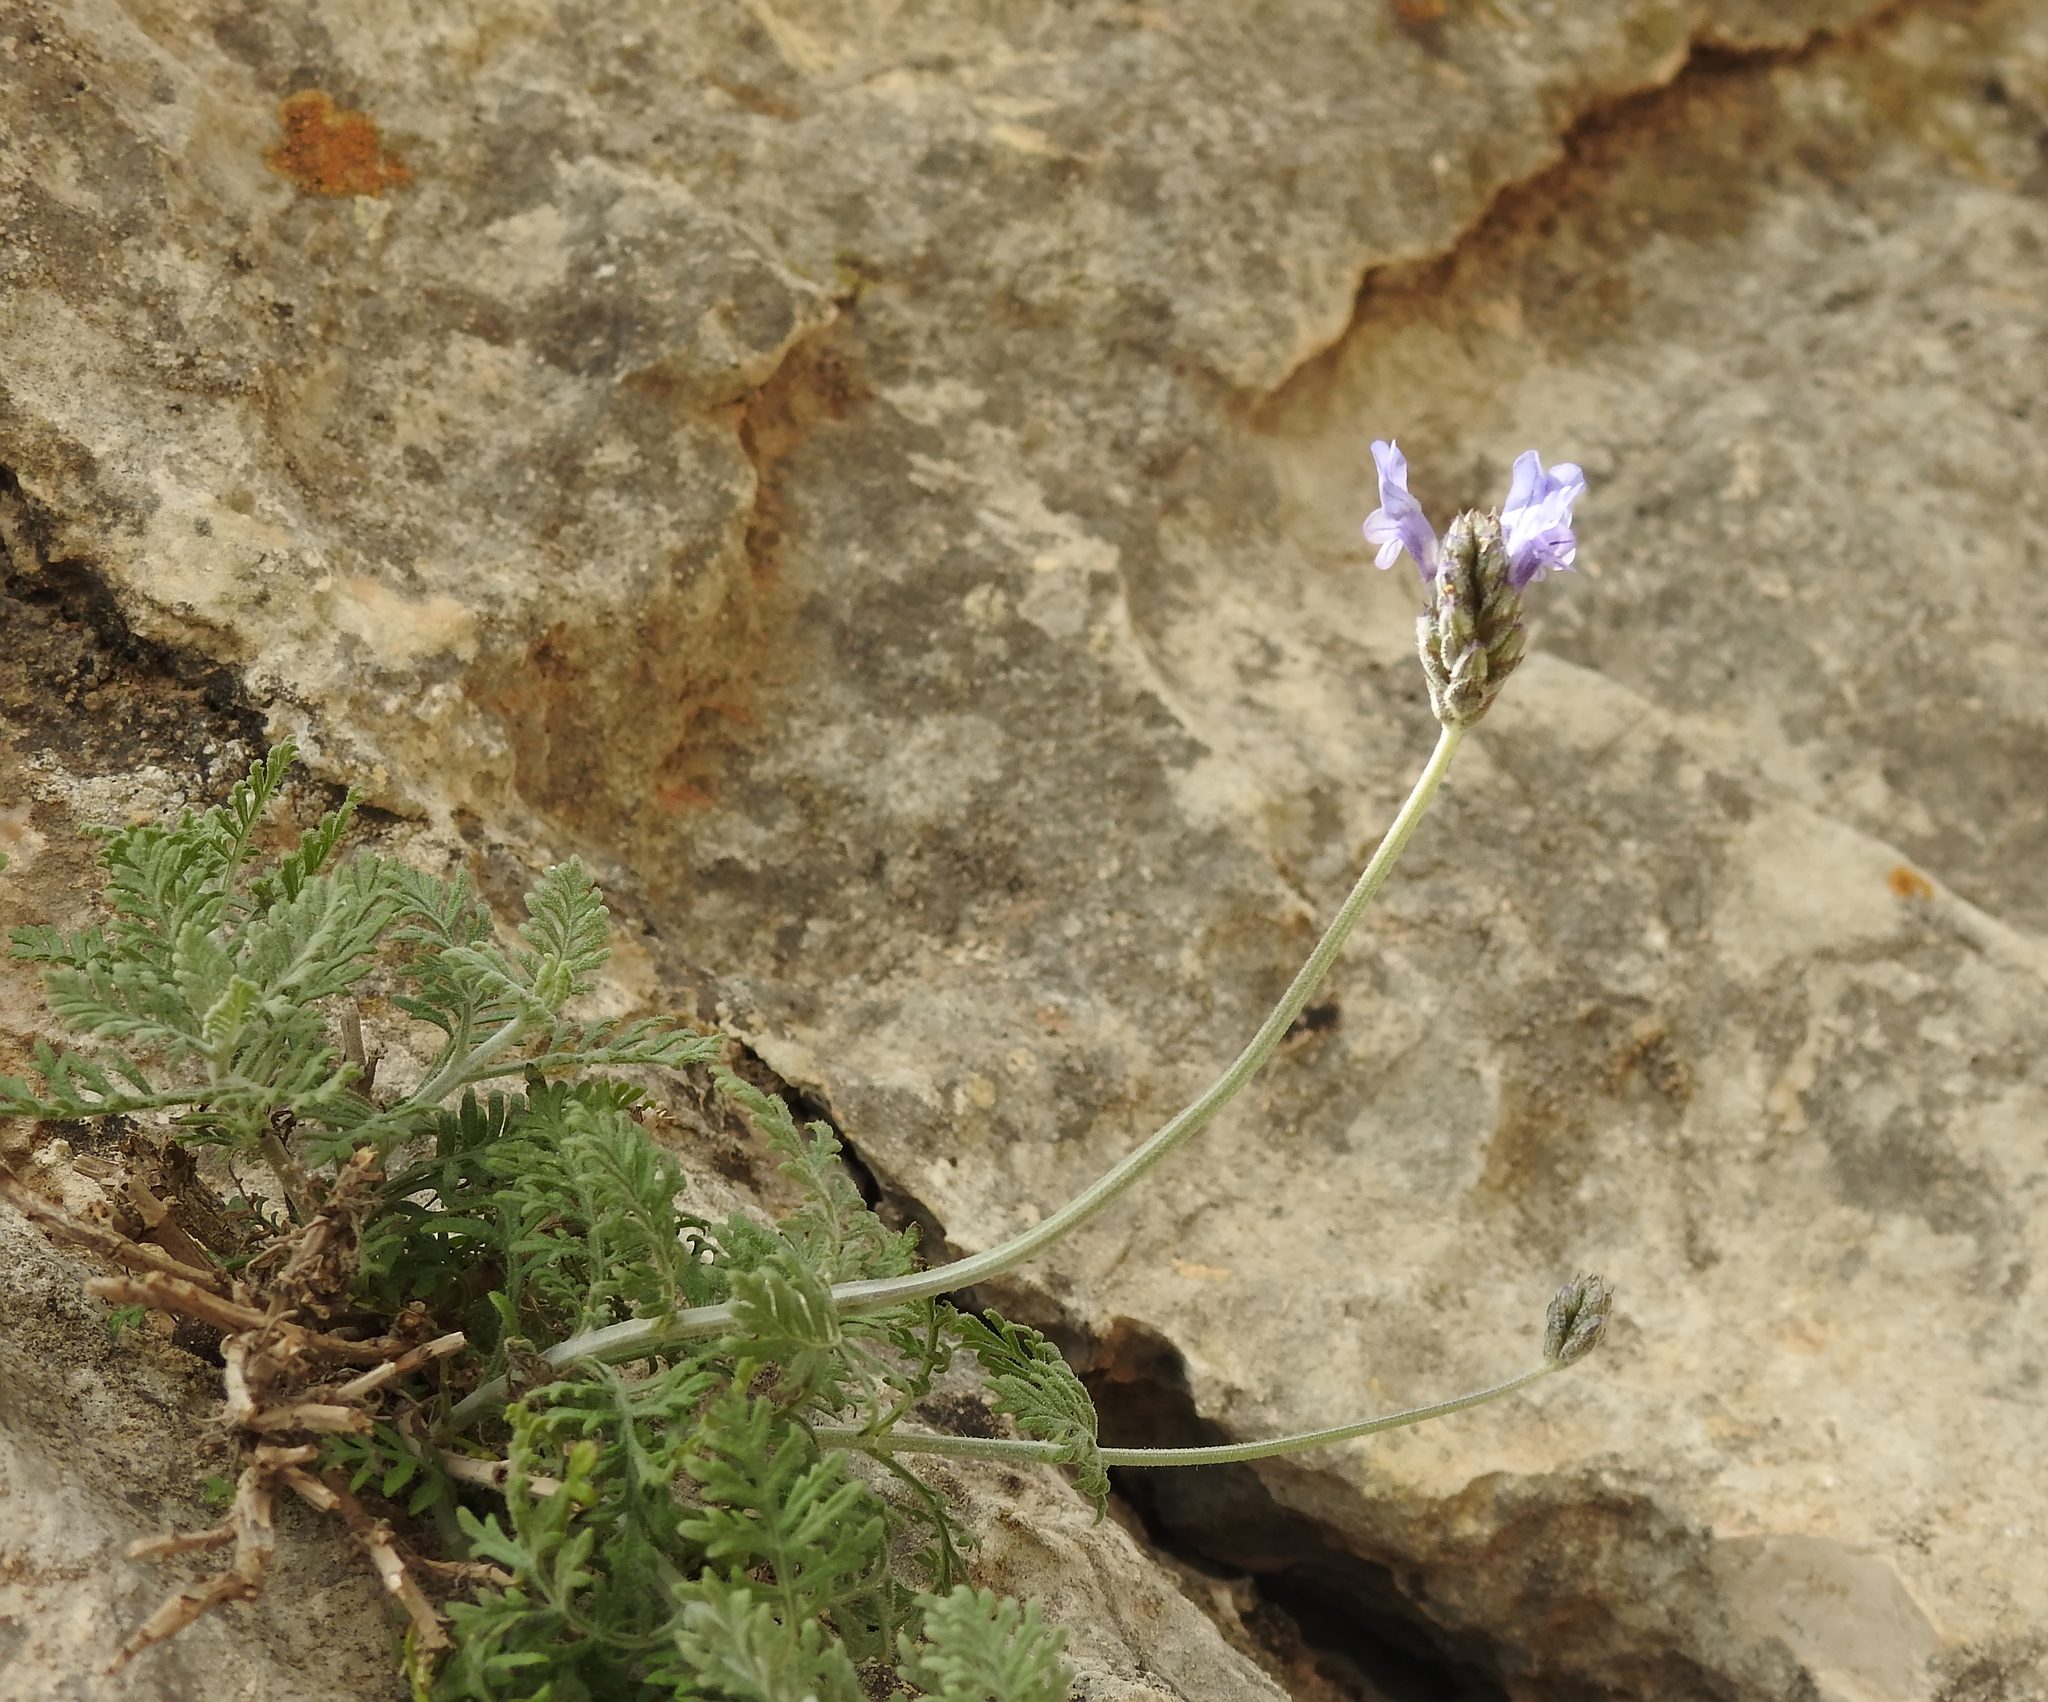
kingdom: Plantae
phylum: Tracheophyta
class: Magnoliopsida
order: Lamiales
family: Lamiaceae
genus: Lavandula
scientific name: Lavandula multifida
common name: Fern-leaf lavender
